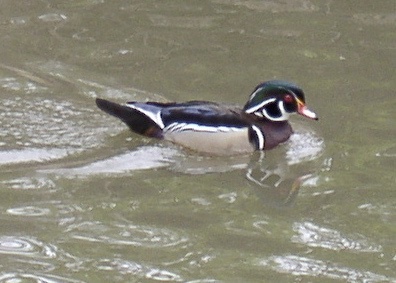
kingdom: Animalia
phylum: Chordata
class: Aves
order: Anseriformes
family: Anatidae
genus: Aix
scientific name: Aix sponsa
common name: Wood duck
